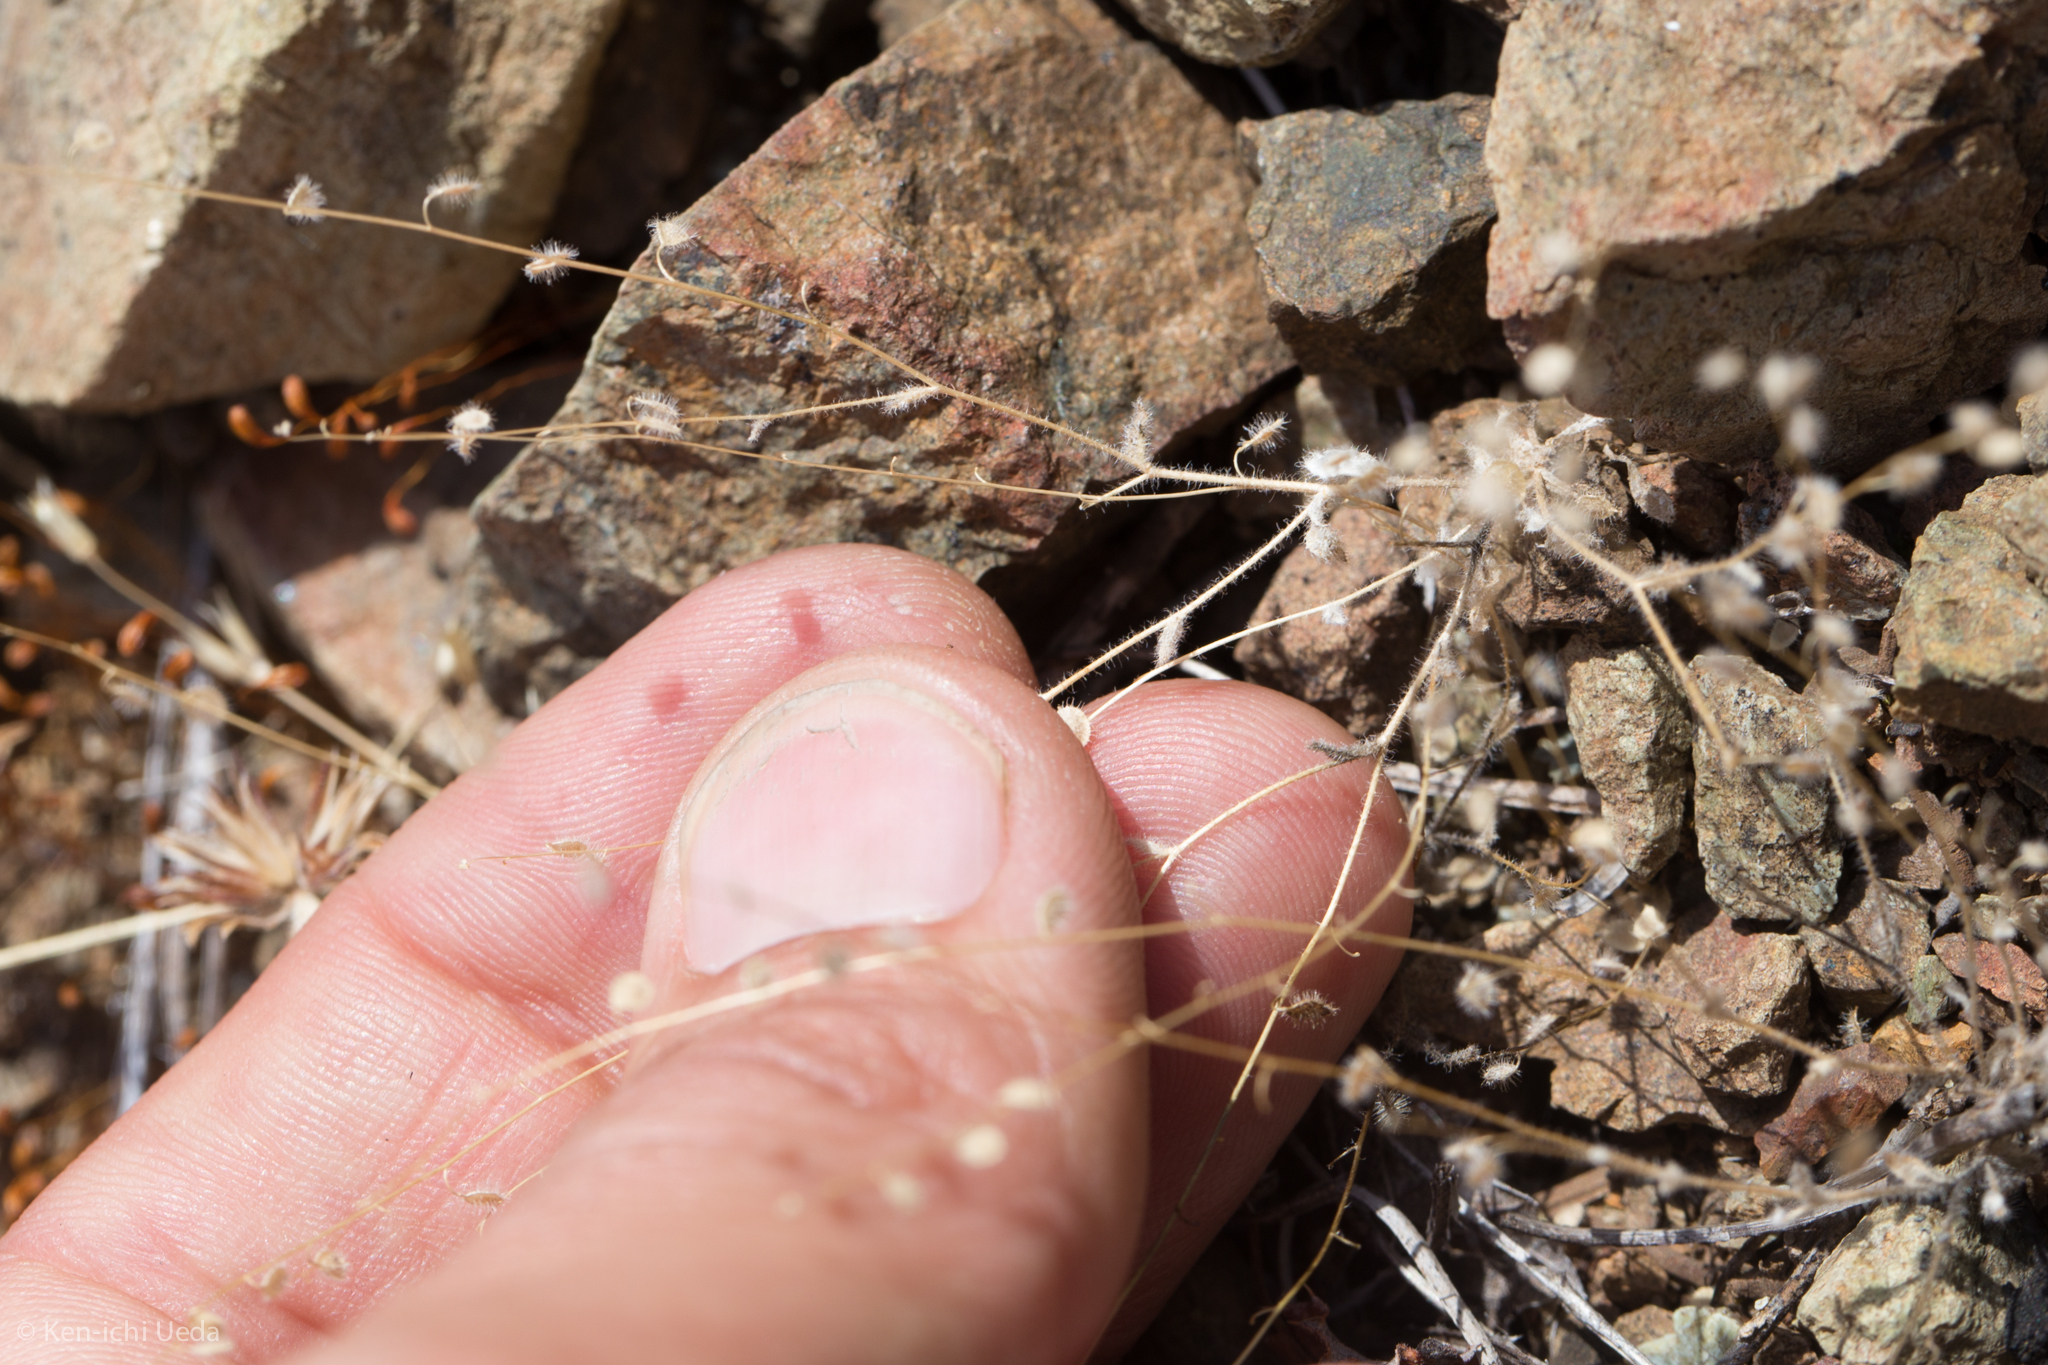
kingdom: Plantae
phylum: Tracheophyta
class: Magnoliopsida
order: Brassicales
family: Brassicaceae
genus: Athysanus
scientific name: Athysanus pusillus
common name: Common sandweed
